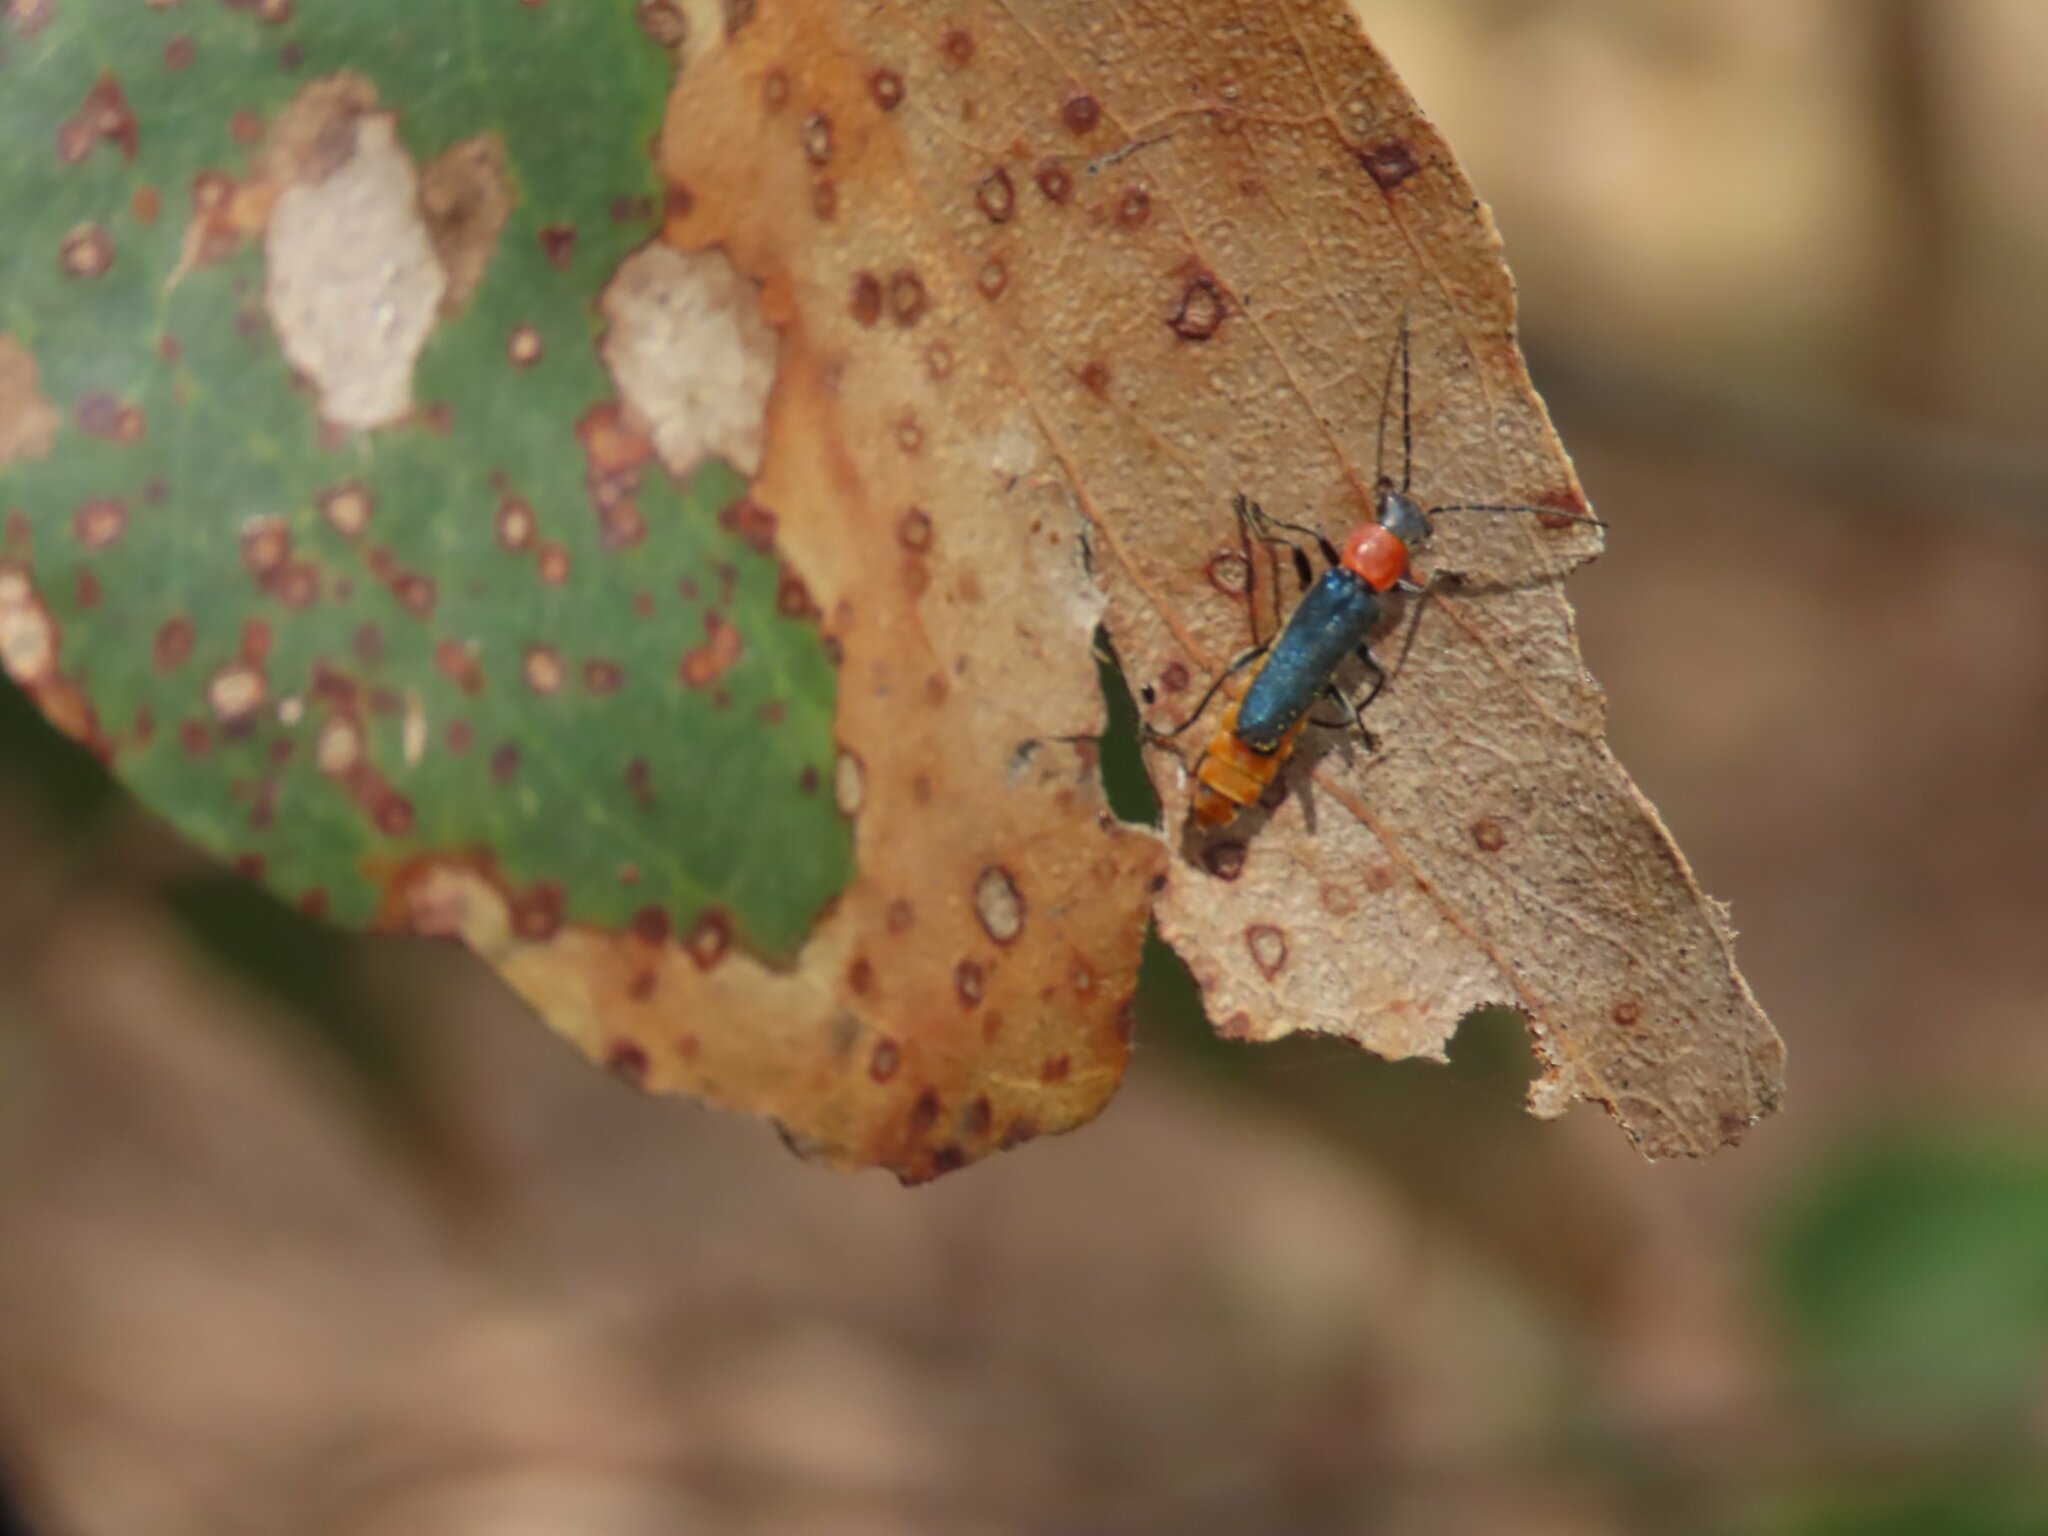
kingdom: Animalia
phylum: Arthropoda
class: Insecta
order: Coleoptera
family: Cantharidae
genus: Chauliognathus
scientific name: Chauliognathus
